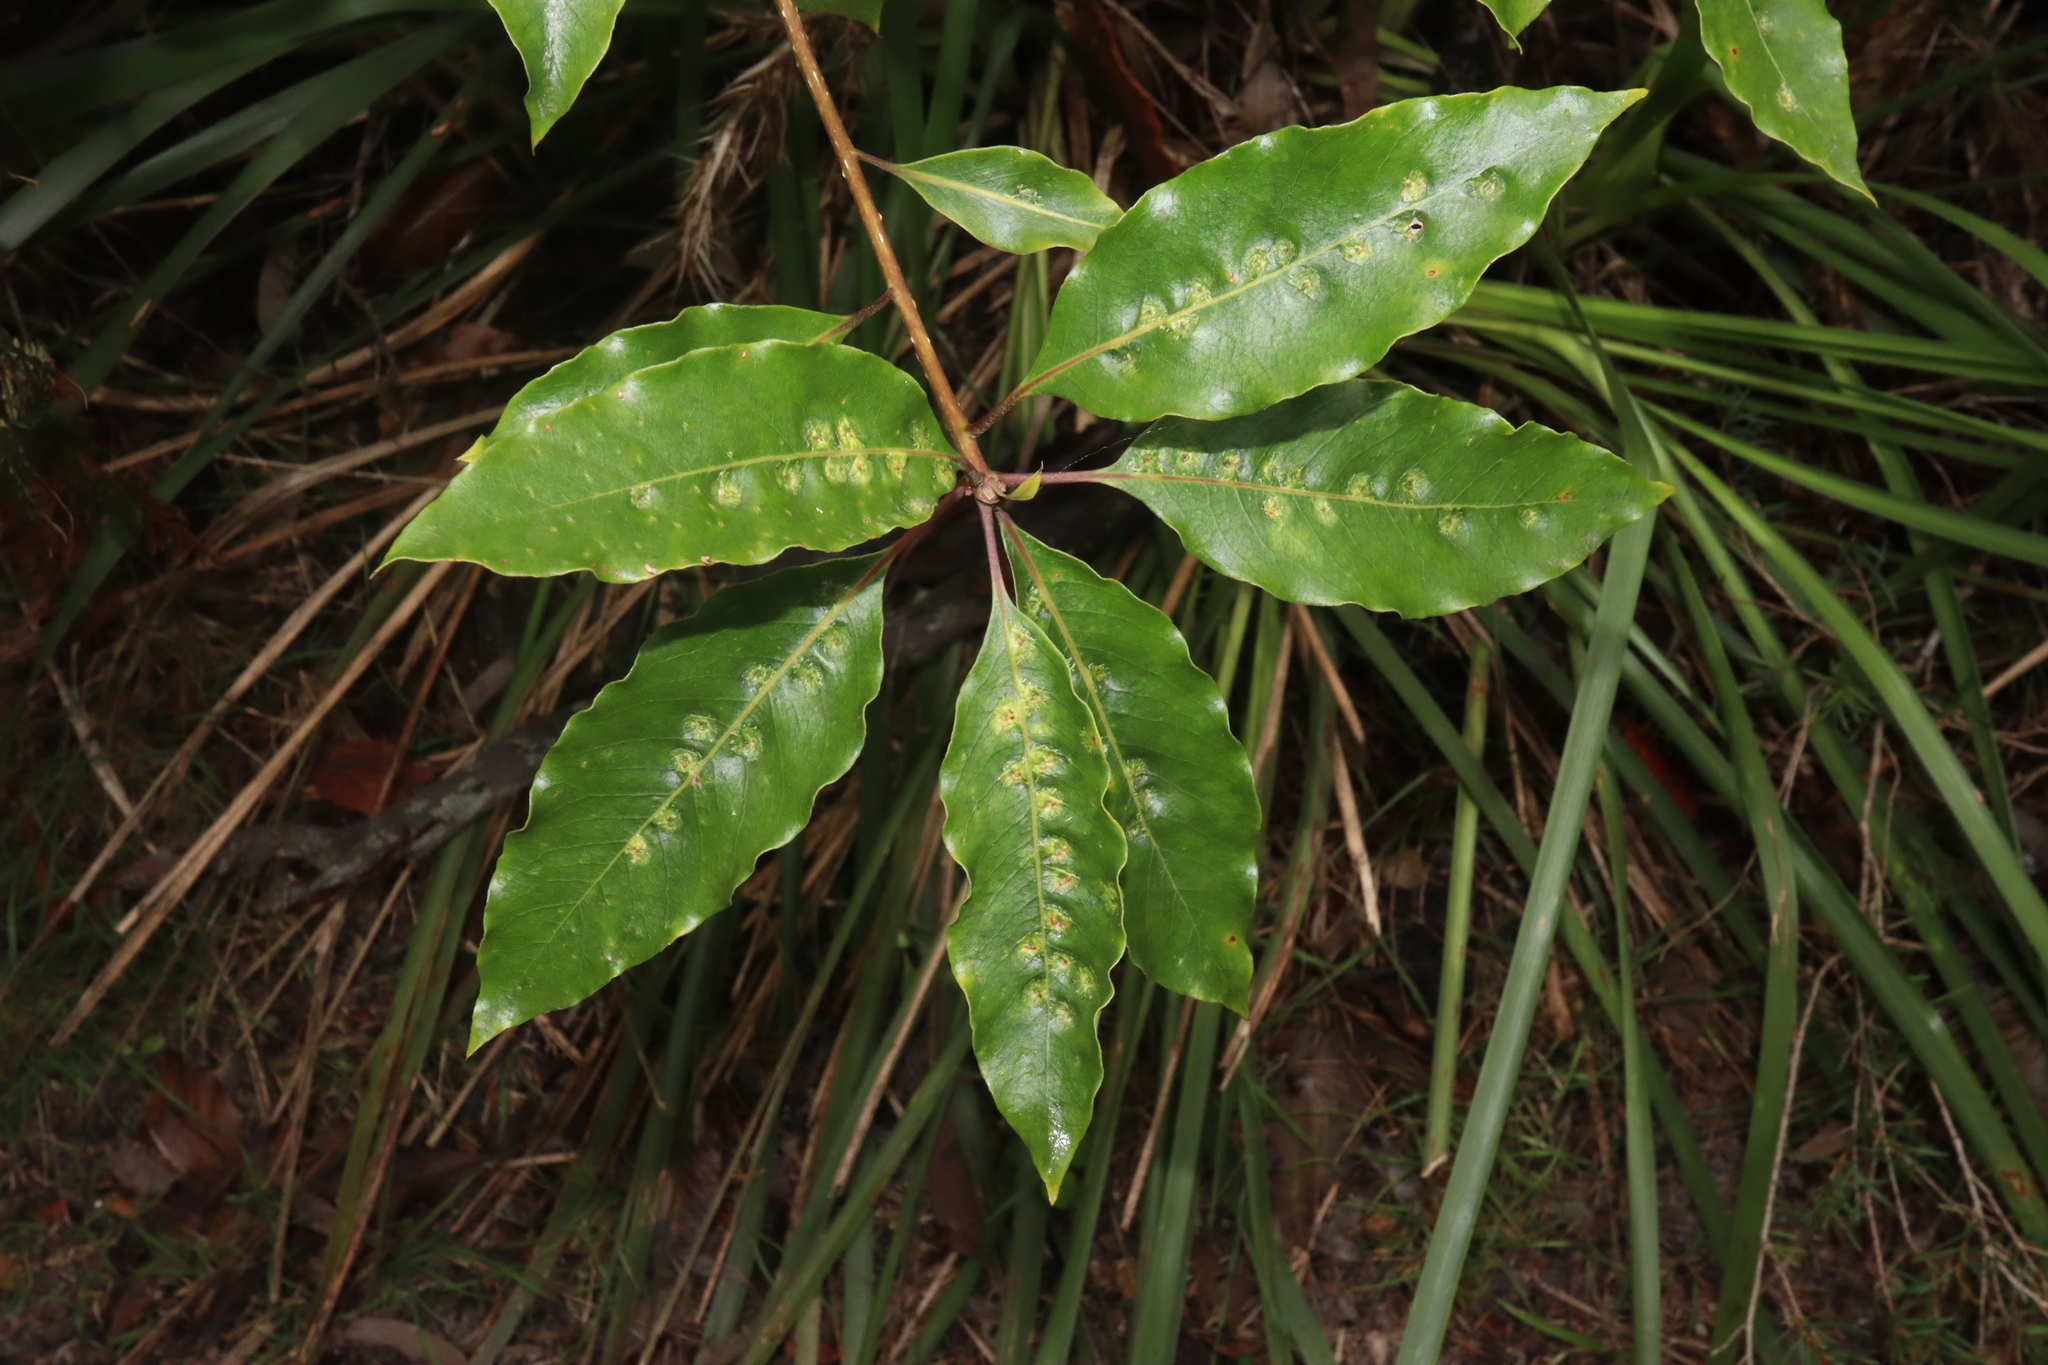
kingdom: Animalia
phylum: Arthropoda
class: Insecta
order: Diptera
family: Agromyzidae
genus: Phytoliriomyza
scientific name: Phytoliriomyza pittosporophylli
